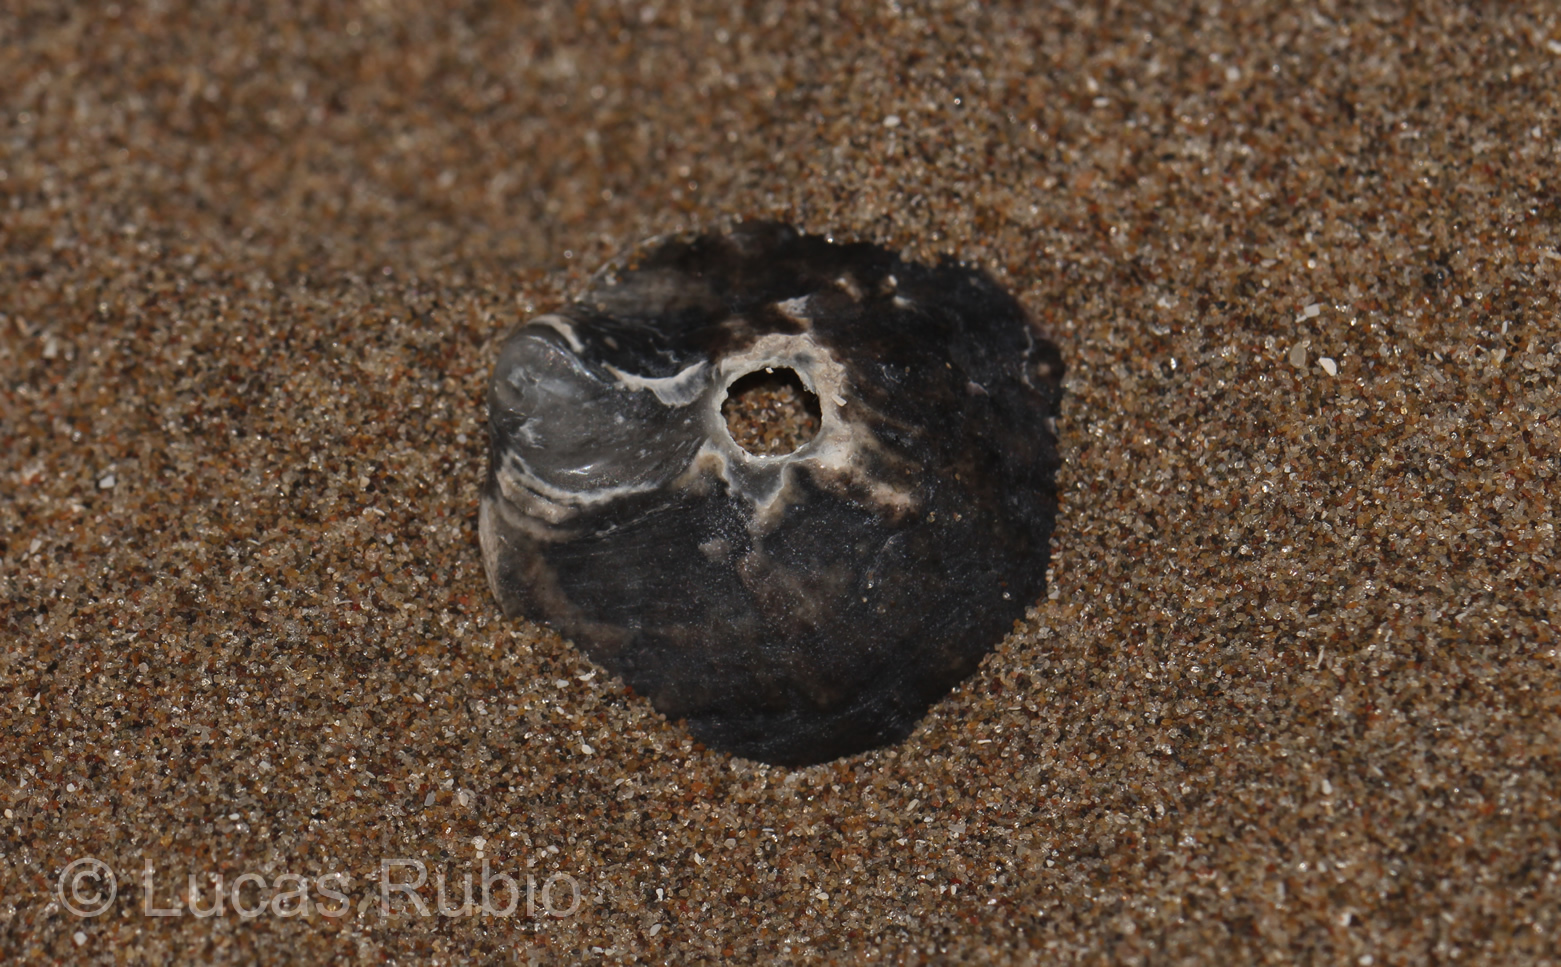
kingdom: Animalia
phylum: Mollusca
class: Bivalvia
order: Ostreida
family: Ostreidae
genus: Ostrea
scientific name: Ostrea puelchana
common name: Argentine flat oyster
